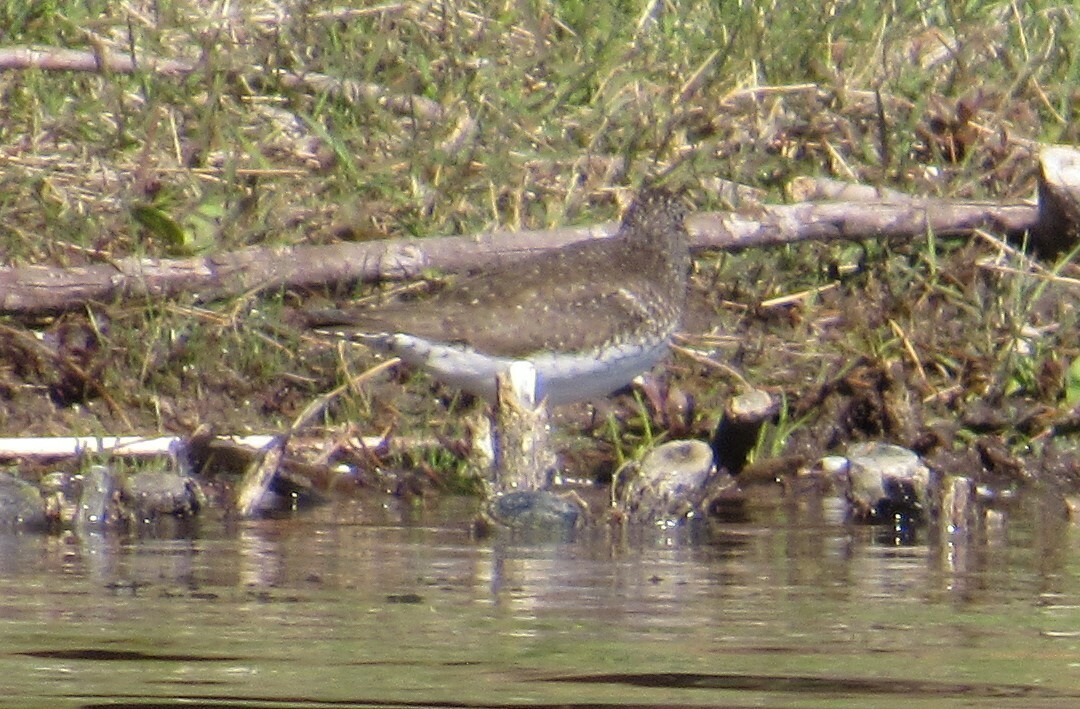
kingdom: Animalia
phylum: Chordata
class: Aves
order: Charadriiformes
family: Scolopacidae
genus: Tringa
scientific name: Tringa solitaria
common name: Solitary sandpiper
